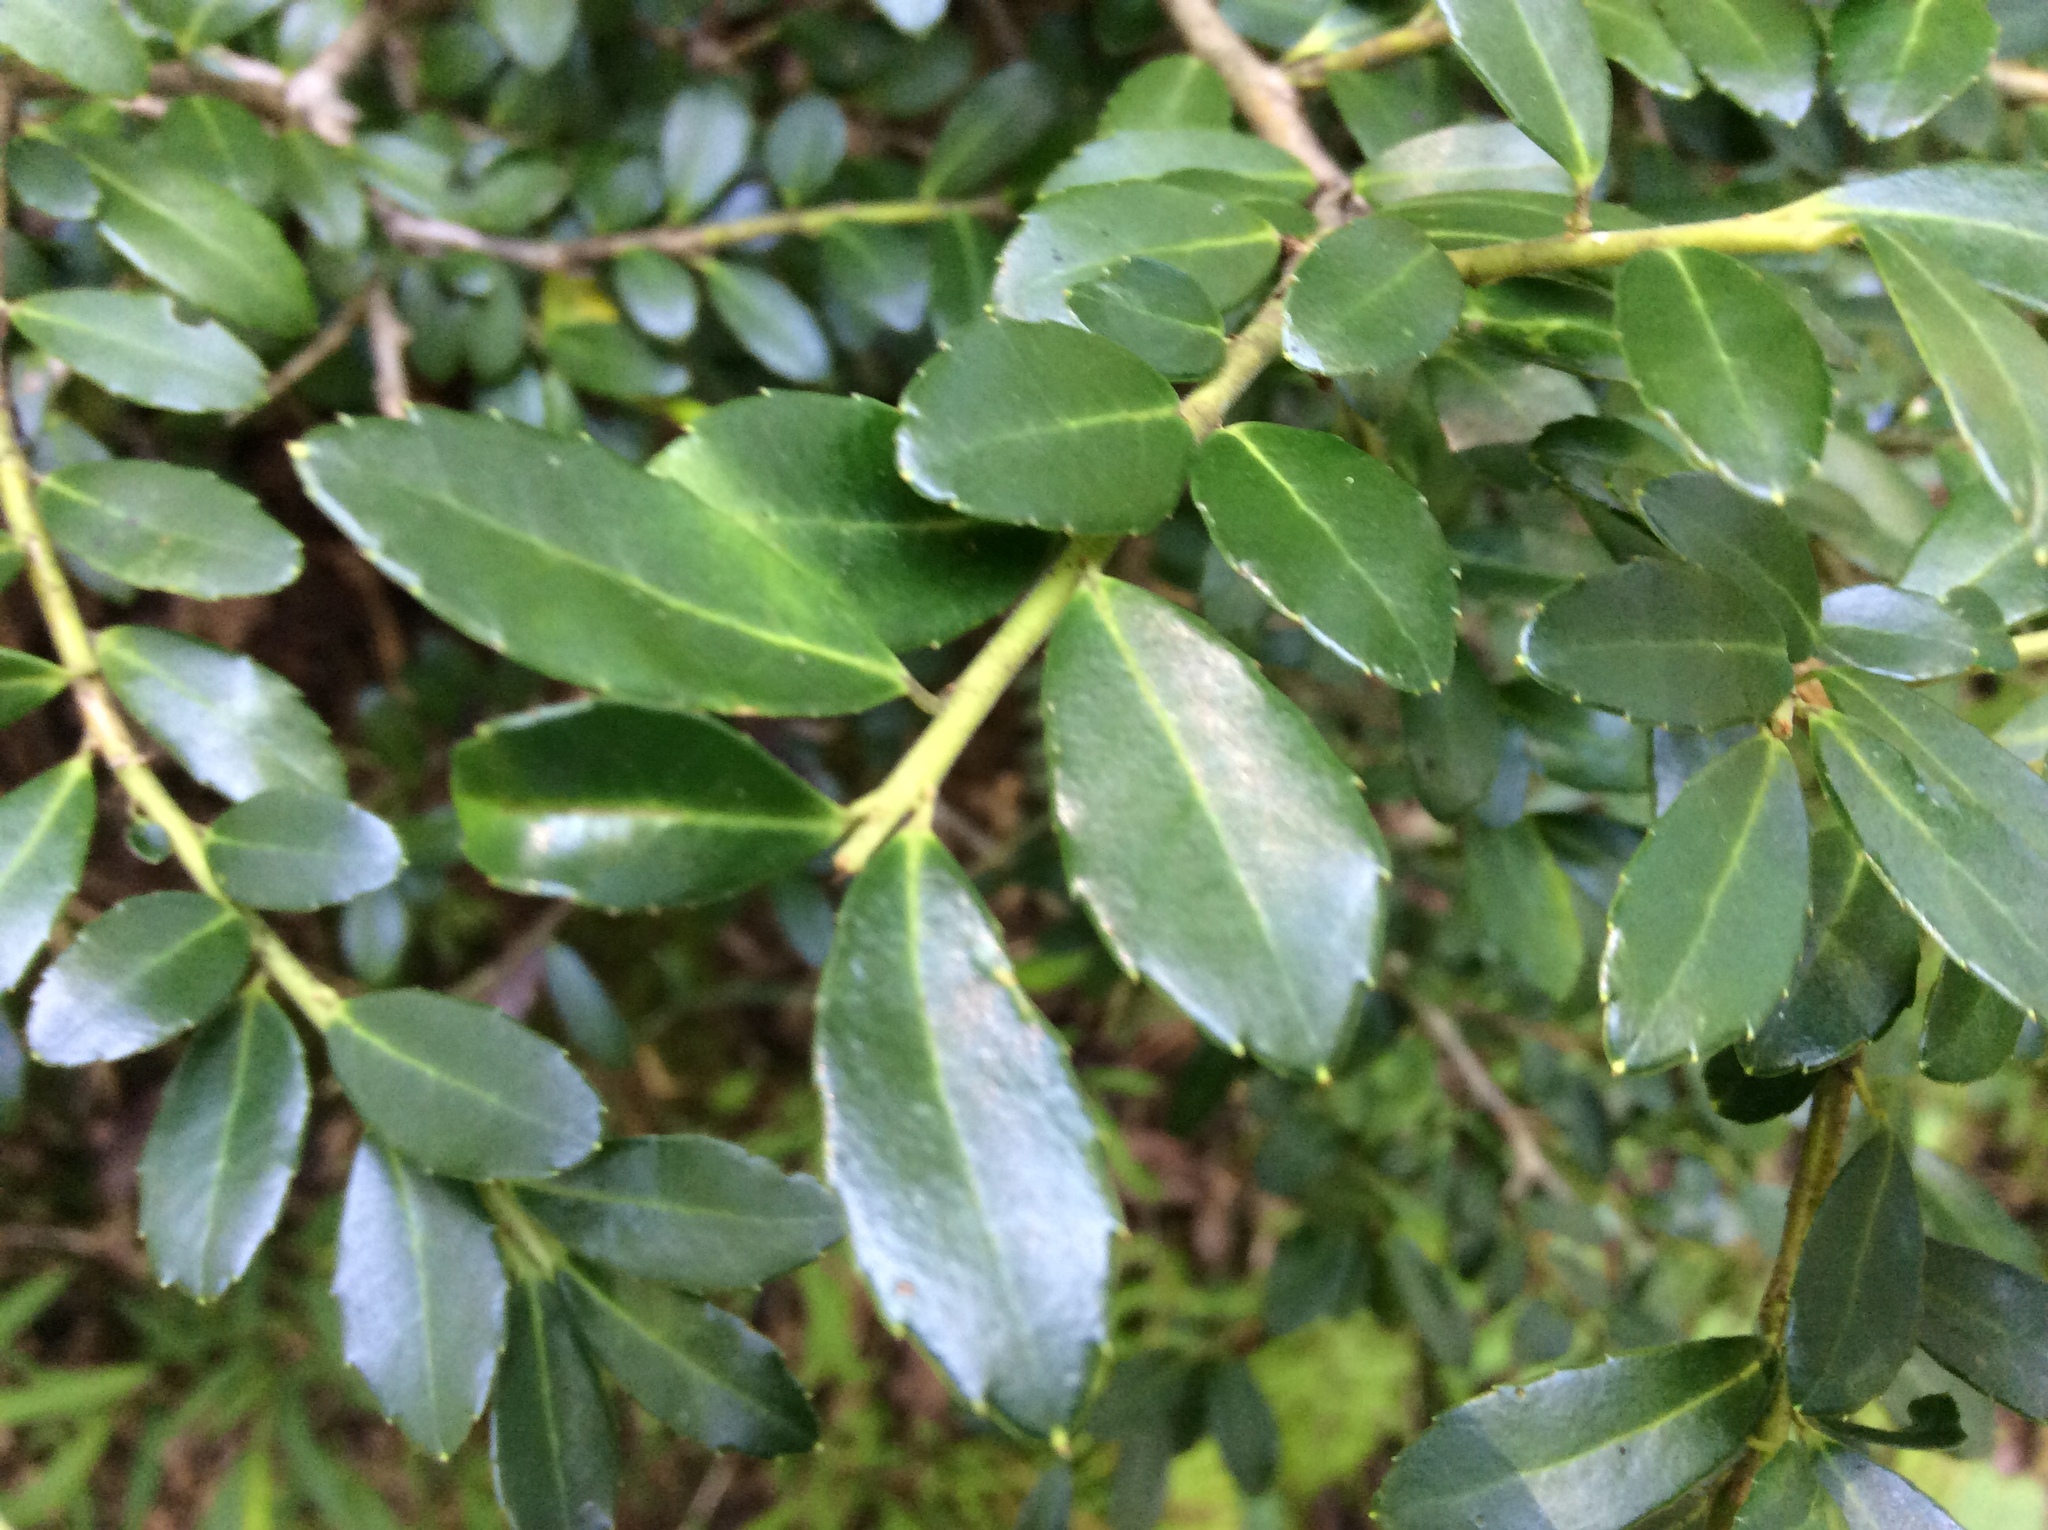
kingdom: Plantae
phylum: Tracheophyta
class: Magnoliopsida
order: Aquifoliales
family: Aquifoliaceae
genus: Ilex
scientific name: Ilex crenata
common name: Japanese holly
